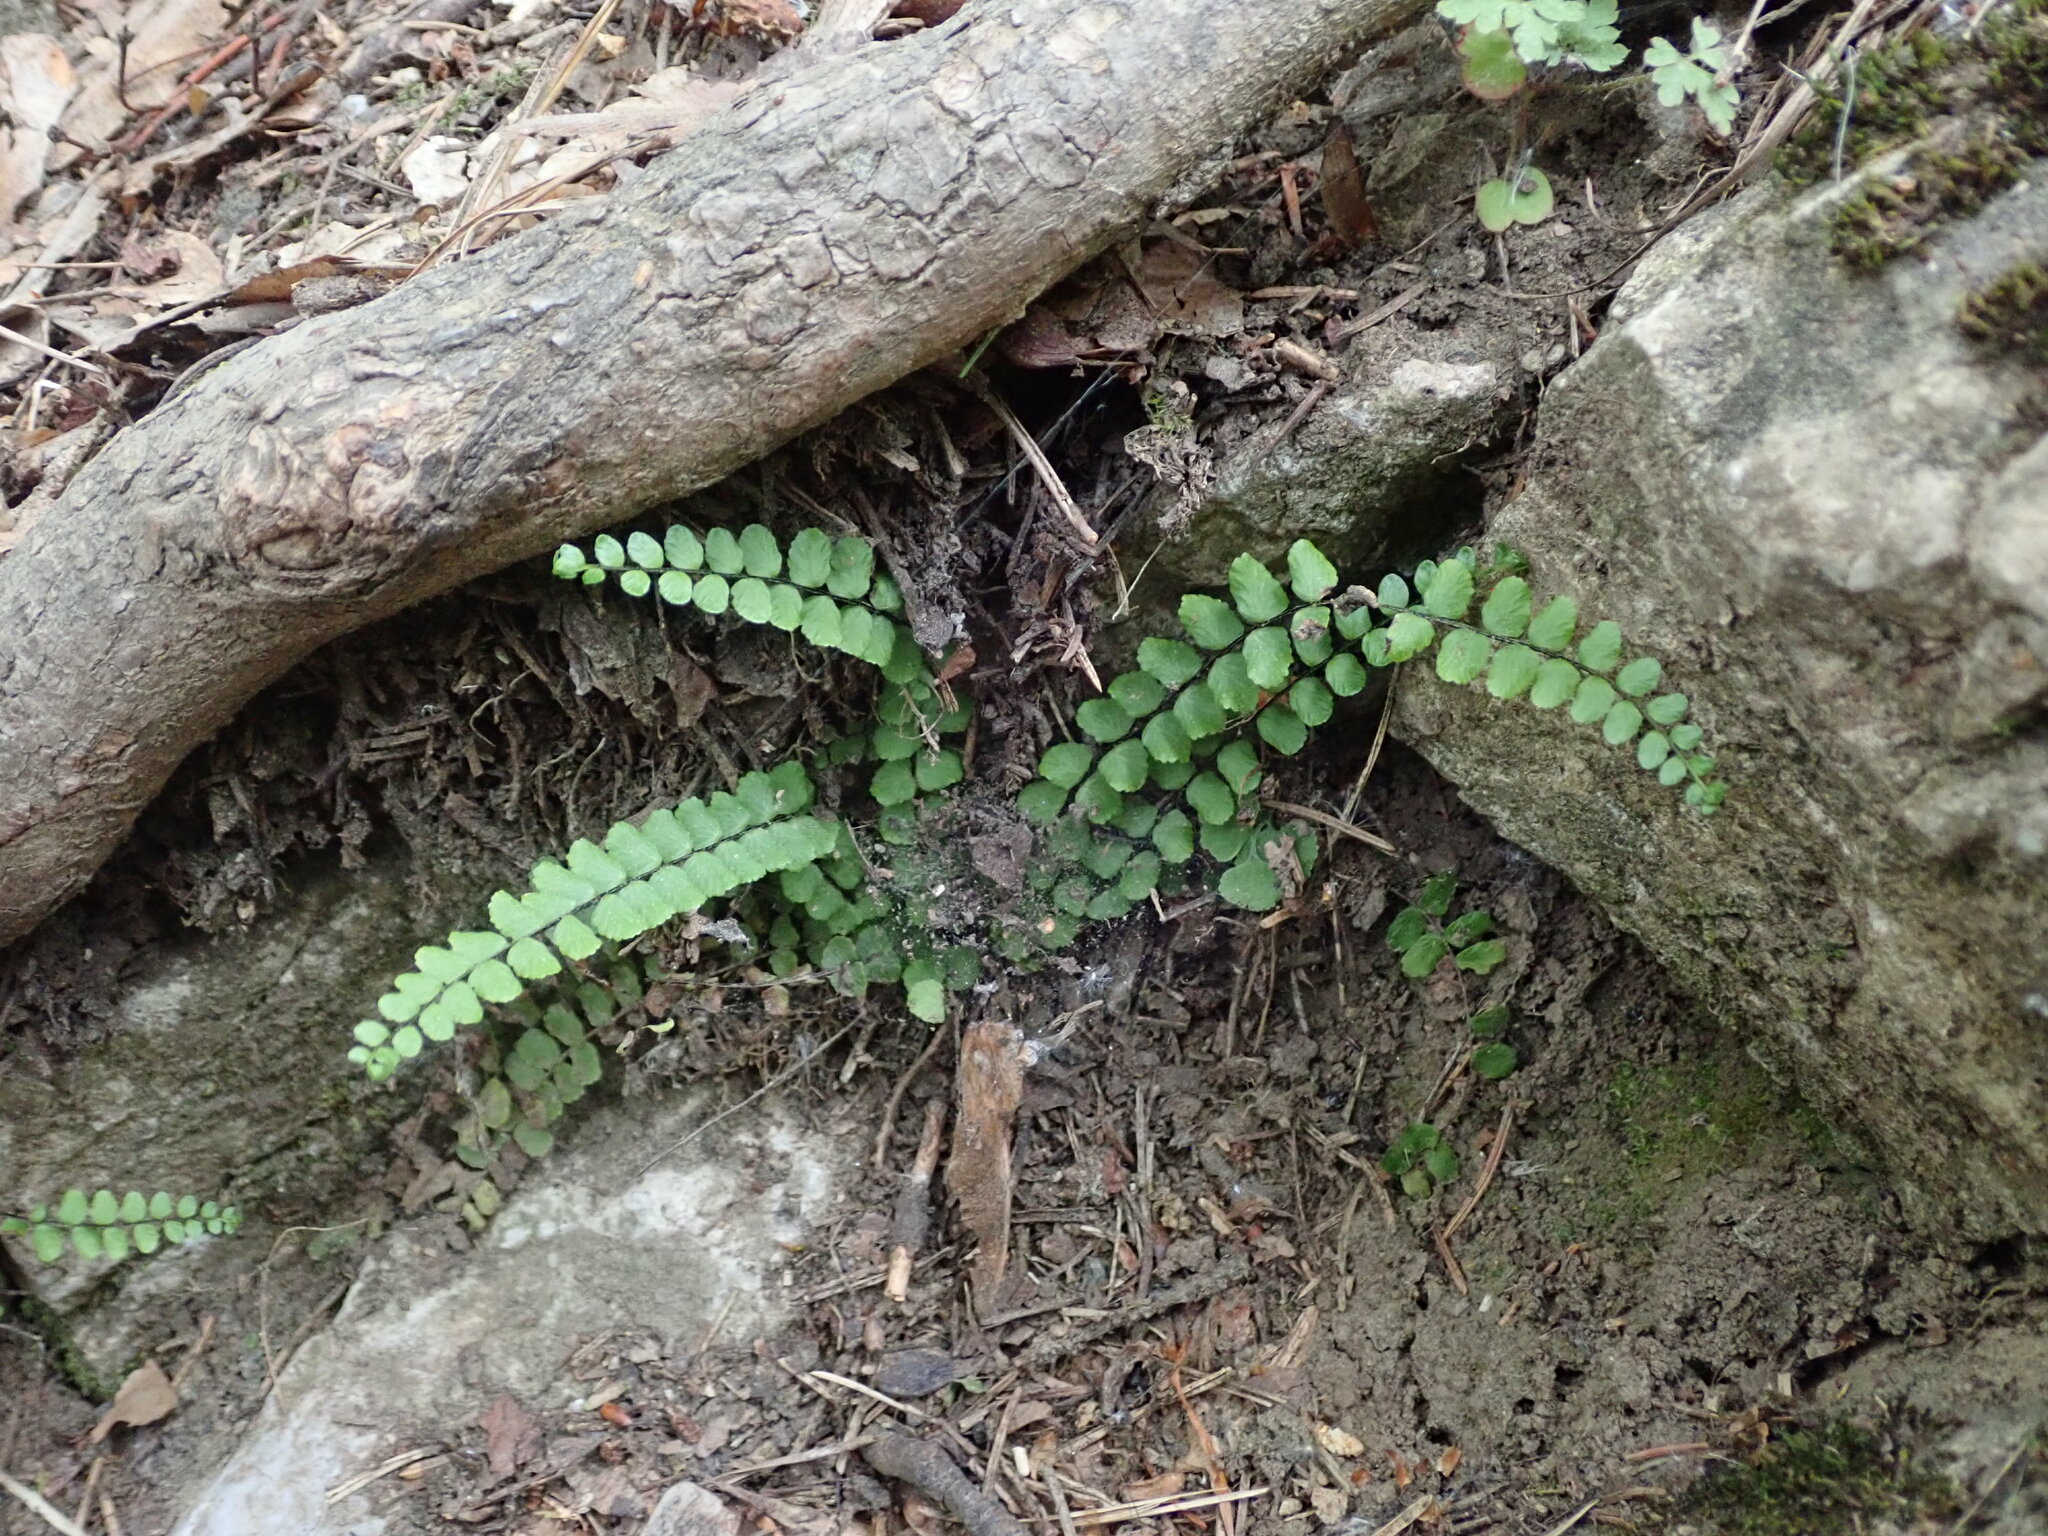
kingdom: Plantae
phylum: Tracheophyta
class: Polypodiopsida
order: Polypodiales
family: Aspleniaceae
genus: Asplenium
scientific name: Asplenium trichomanes
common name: Maidenhair spleenwort
